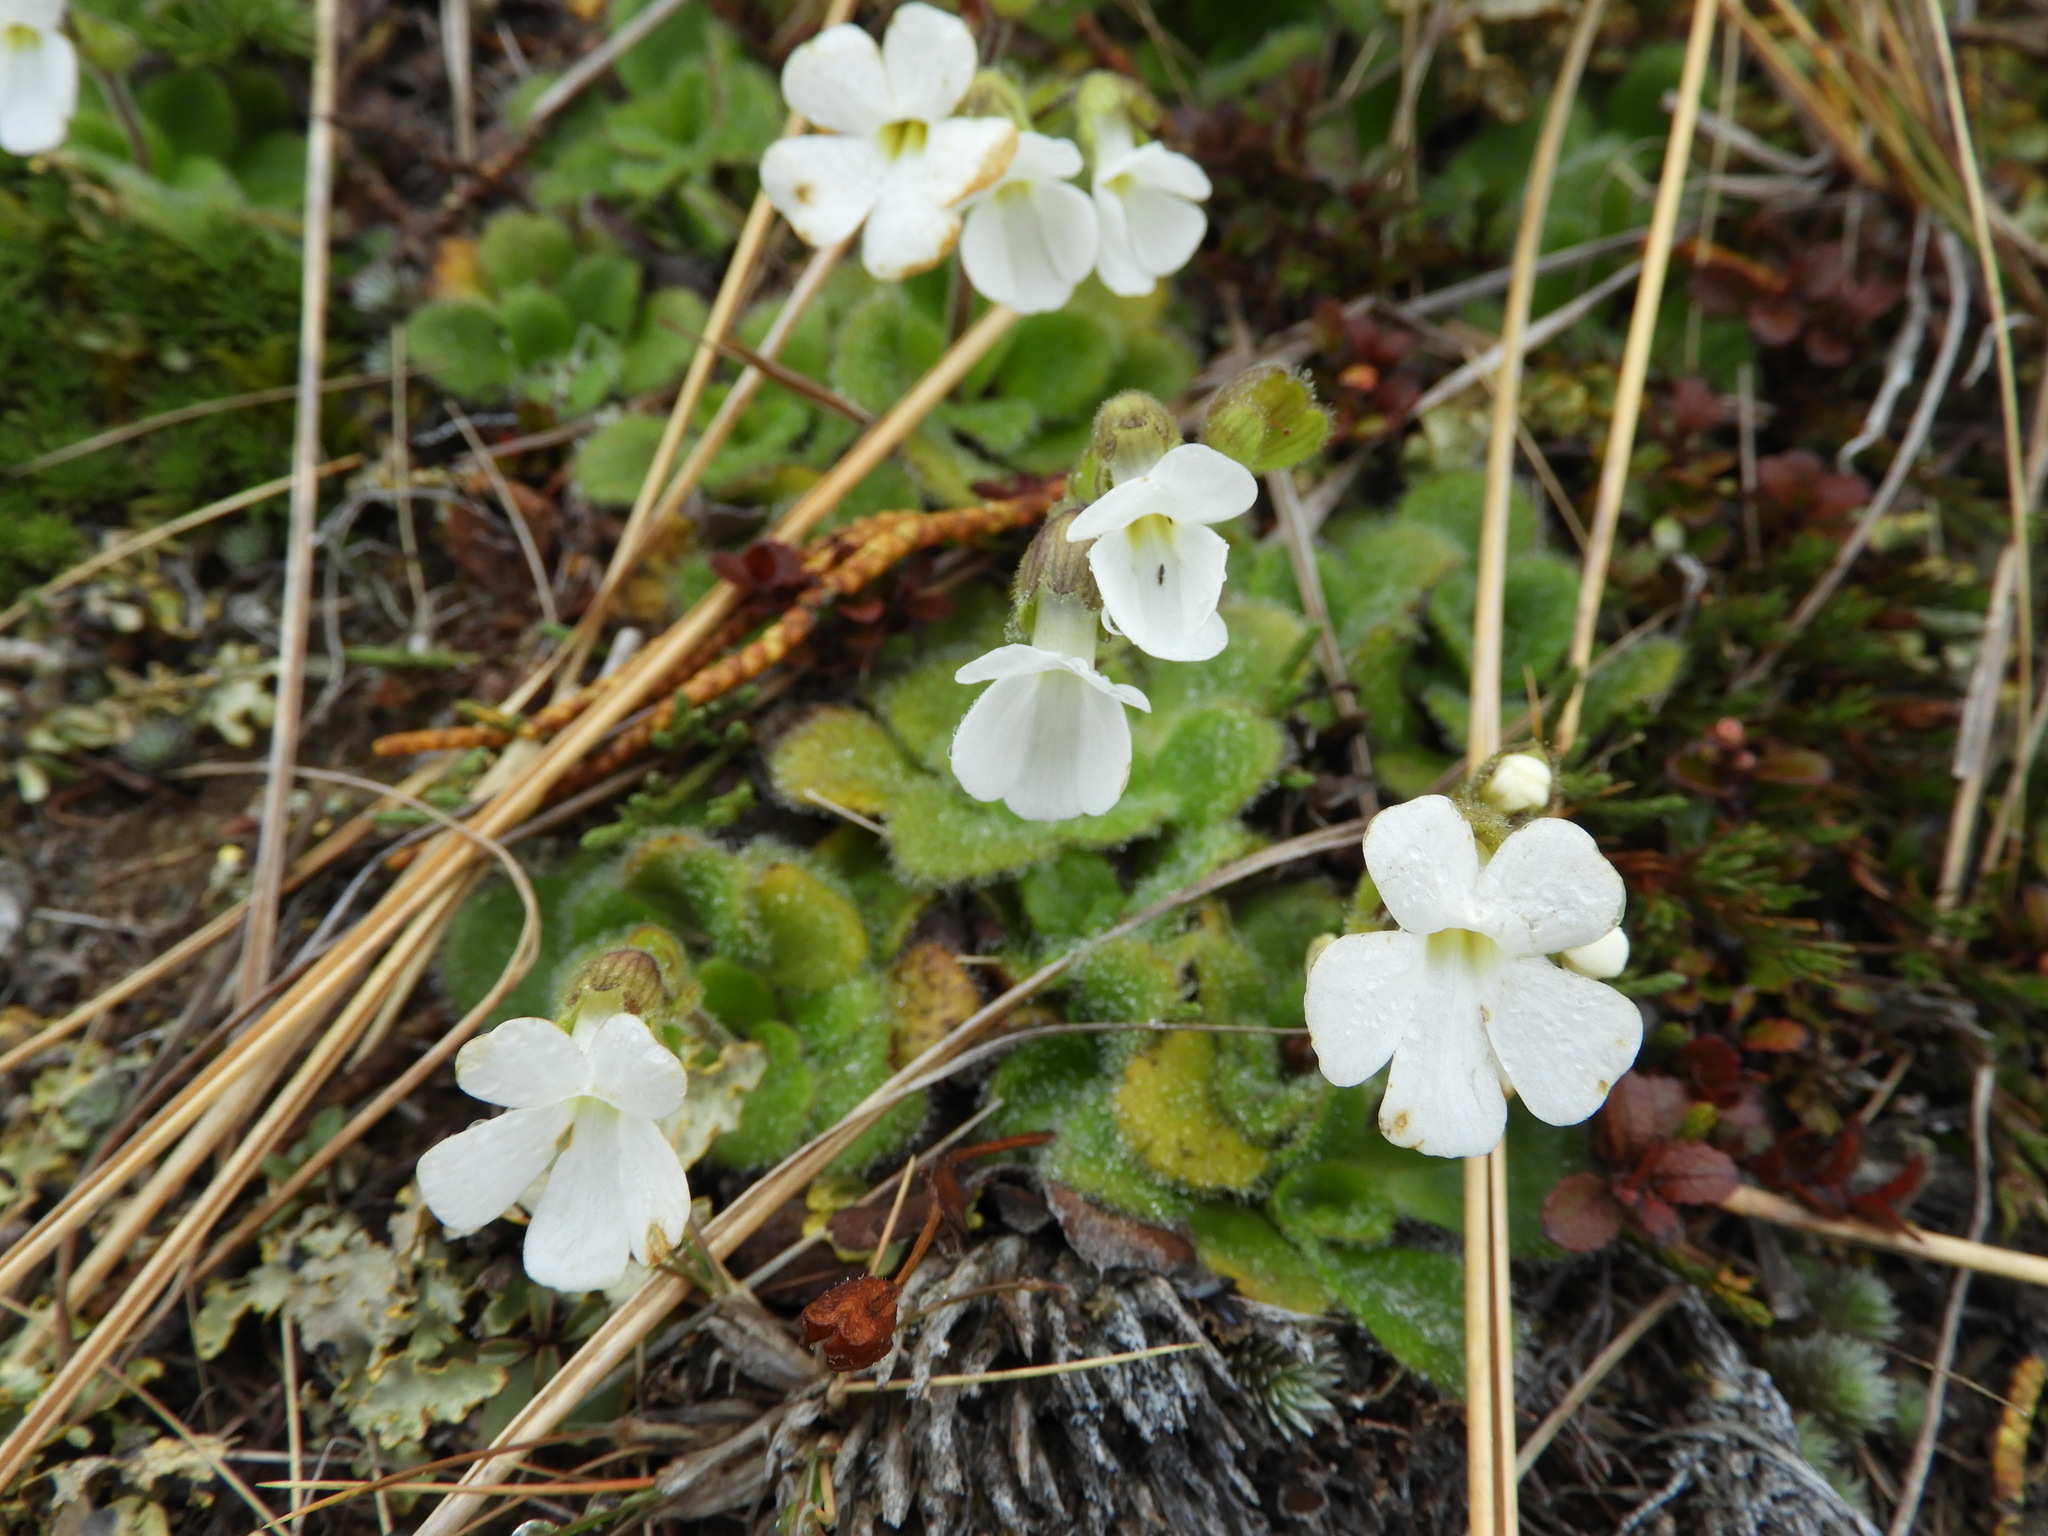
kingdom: Plantae
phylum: Tracheophyta
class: Magnoliopsida
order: Lamiales
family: Plantaginaceae
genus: Ourisia
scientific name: Ourisia spathulata
